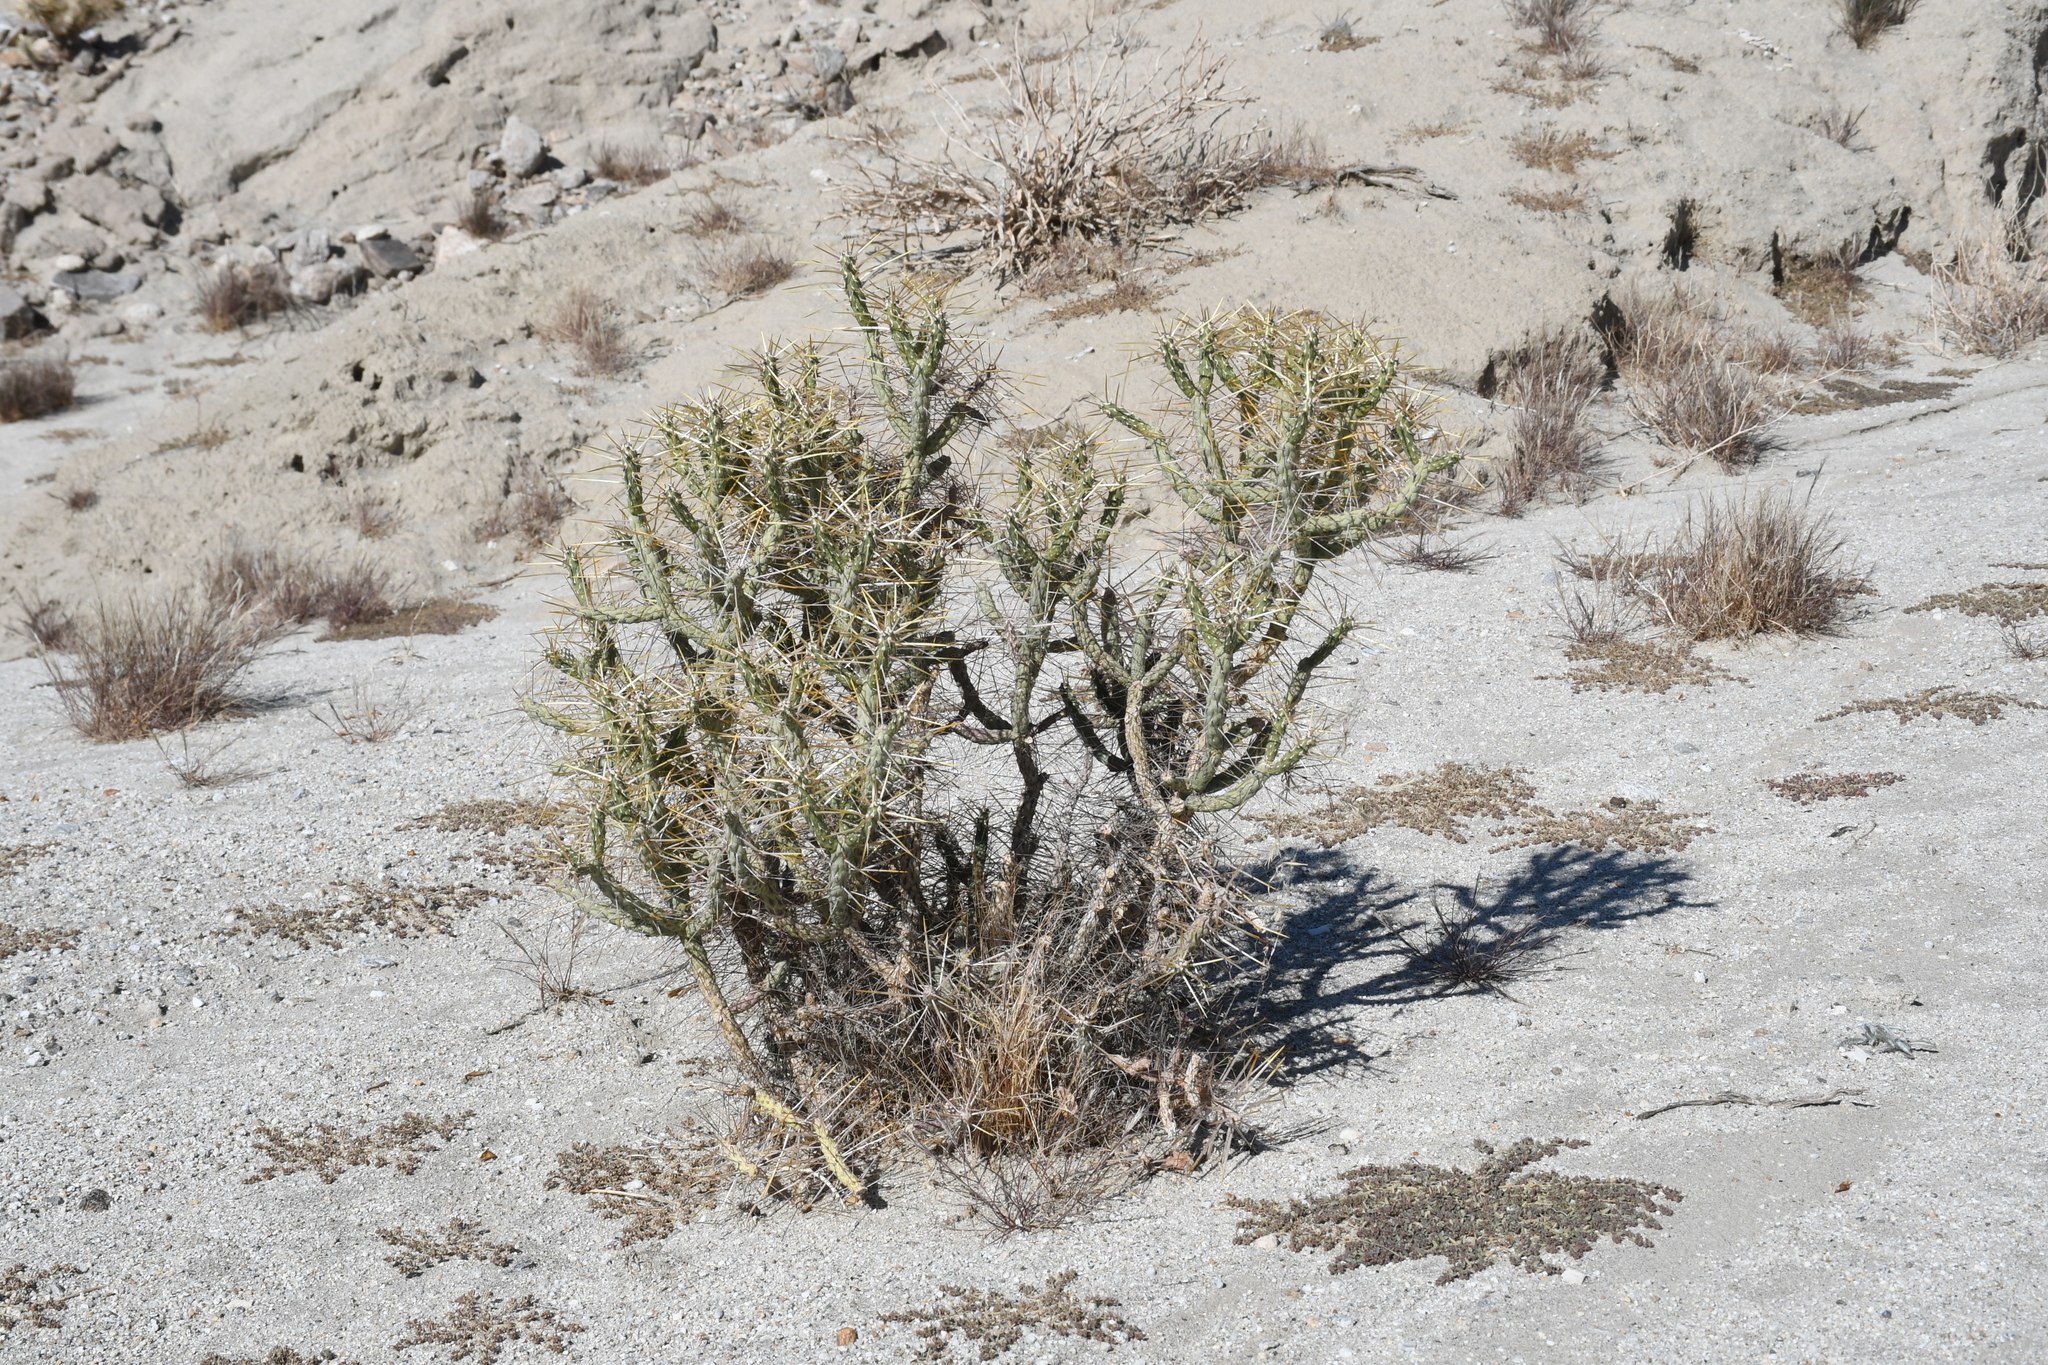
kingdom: Plantae
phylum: Tracheophyta
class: Magnoliopsida
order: Caryophyllales
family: Cactaceae
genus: Cylindropuntia
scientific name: Cylindropuntia ramosissima
